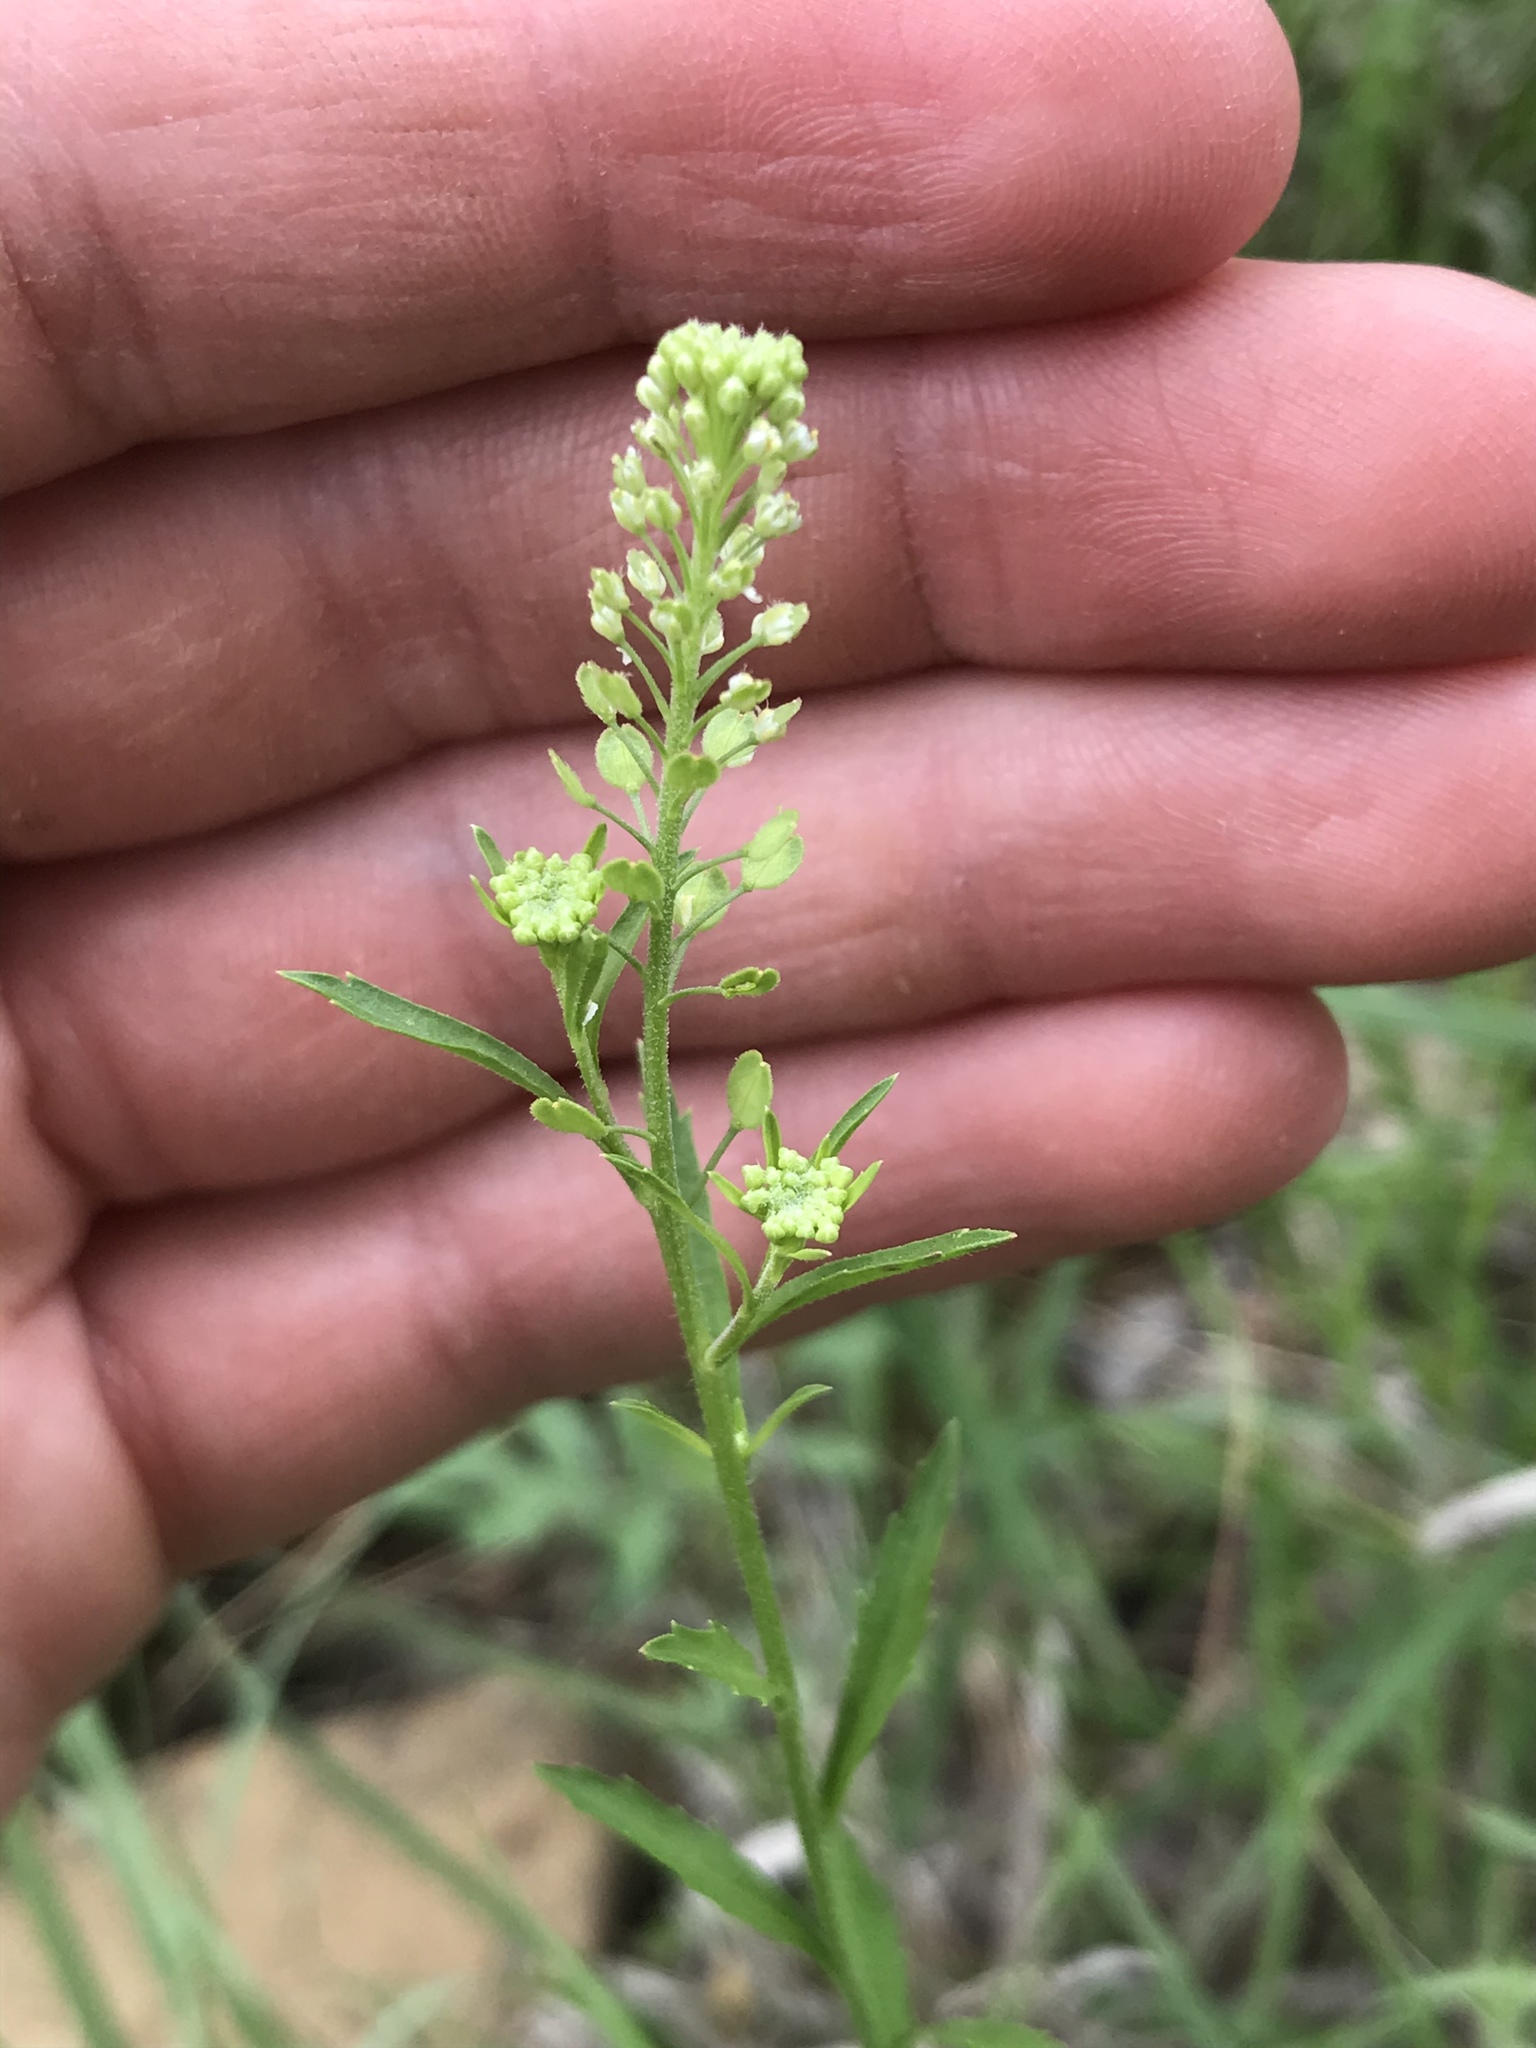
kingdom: Plantae
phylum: Tracheophyta
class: Magnoliopsida
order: Brassicales
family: Brassicaceae
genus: Lepidium
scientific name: Lepidium virginicum
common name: Least pepperwort
